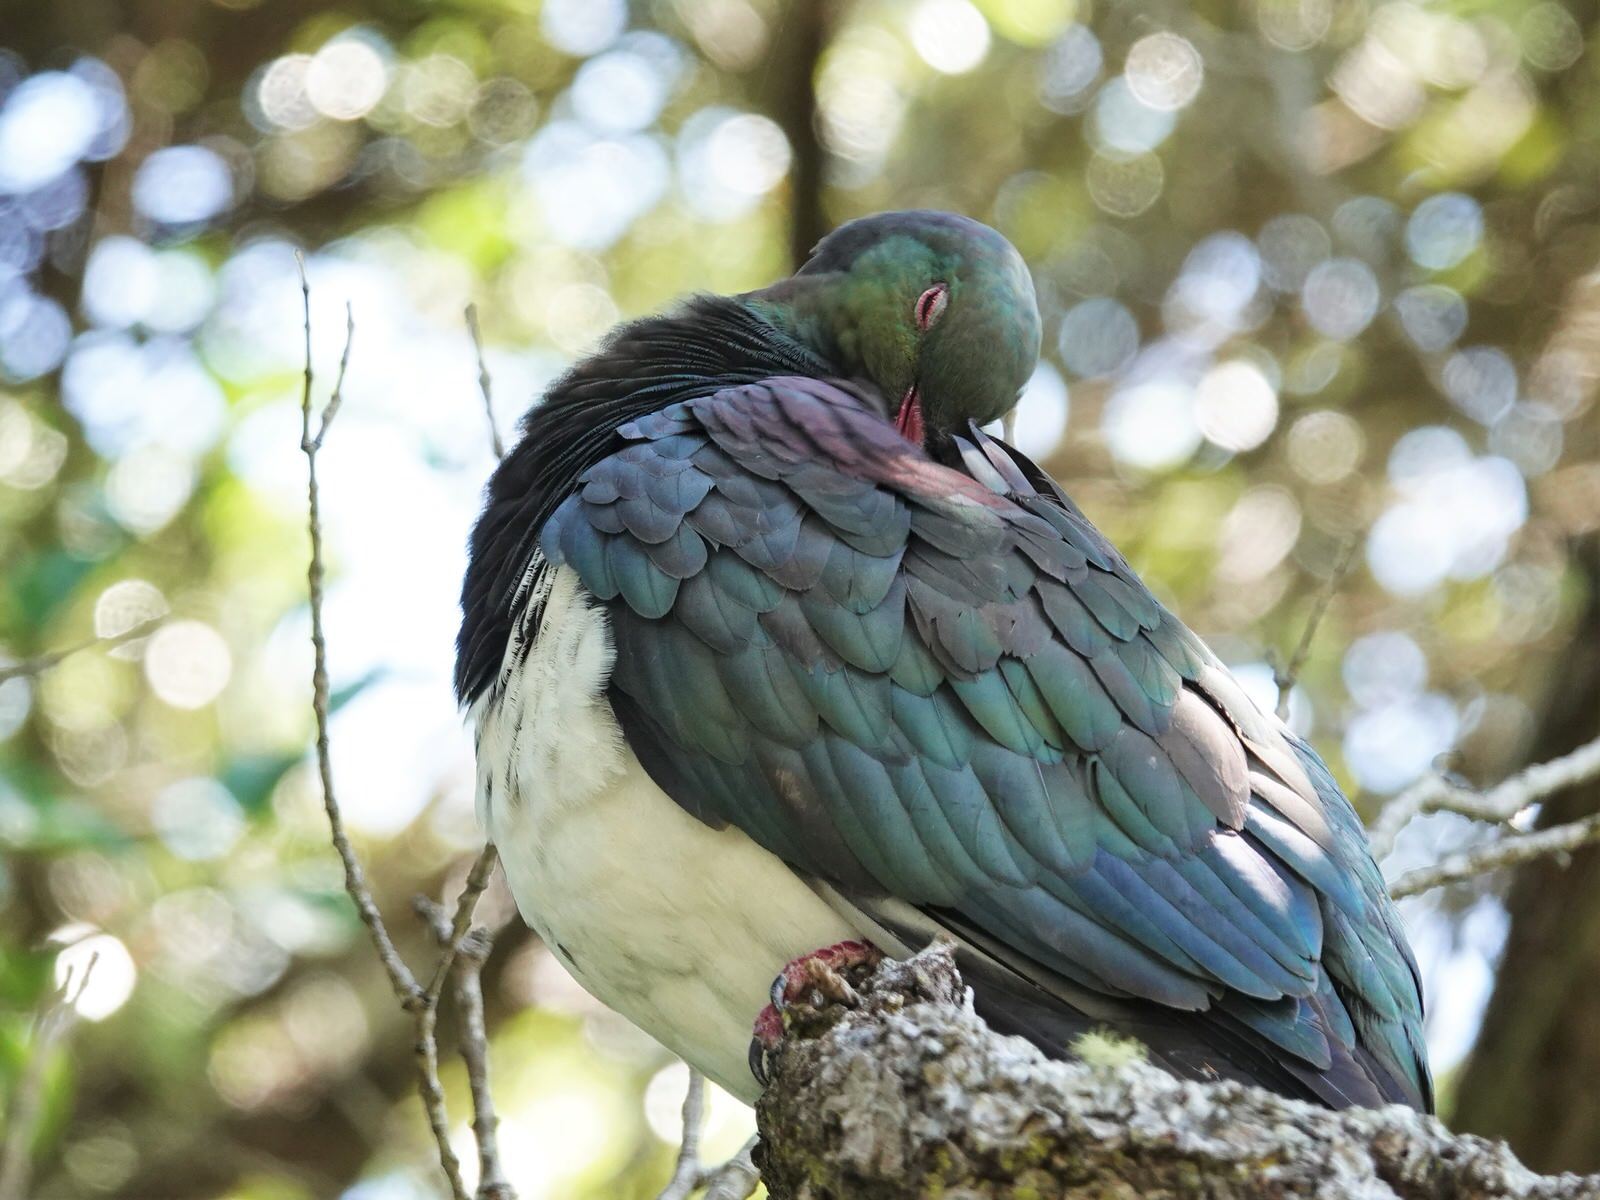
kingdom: Animalia
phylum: Chordata
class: Aves
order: Columbiformes
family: Columbidae
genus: Hemiphaga
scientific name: Hemiphaga novaeseelandiae
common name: New zealand pigeon
